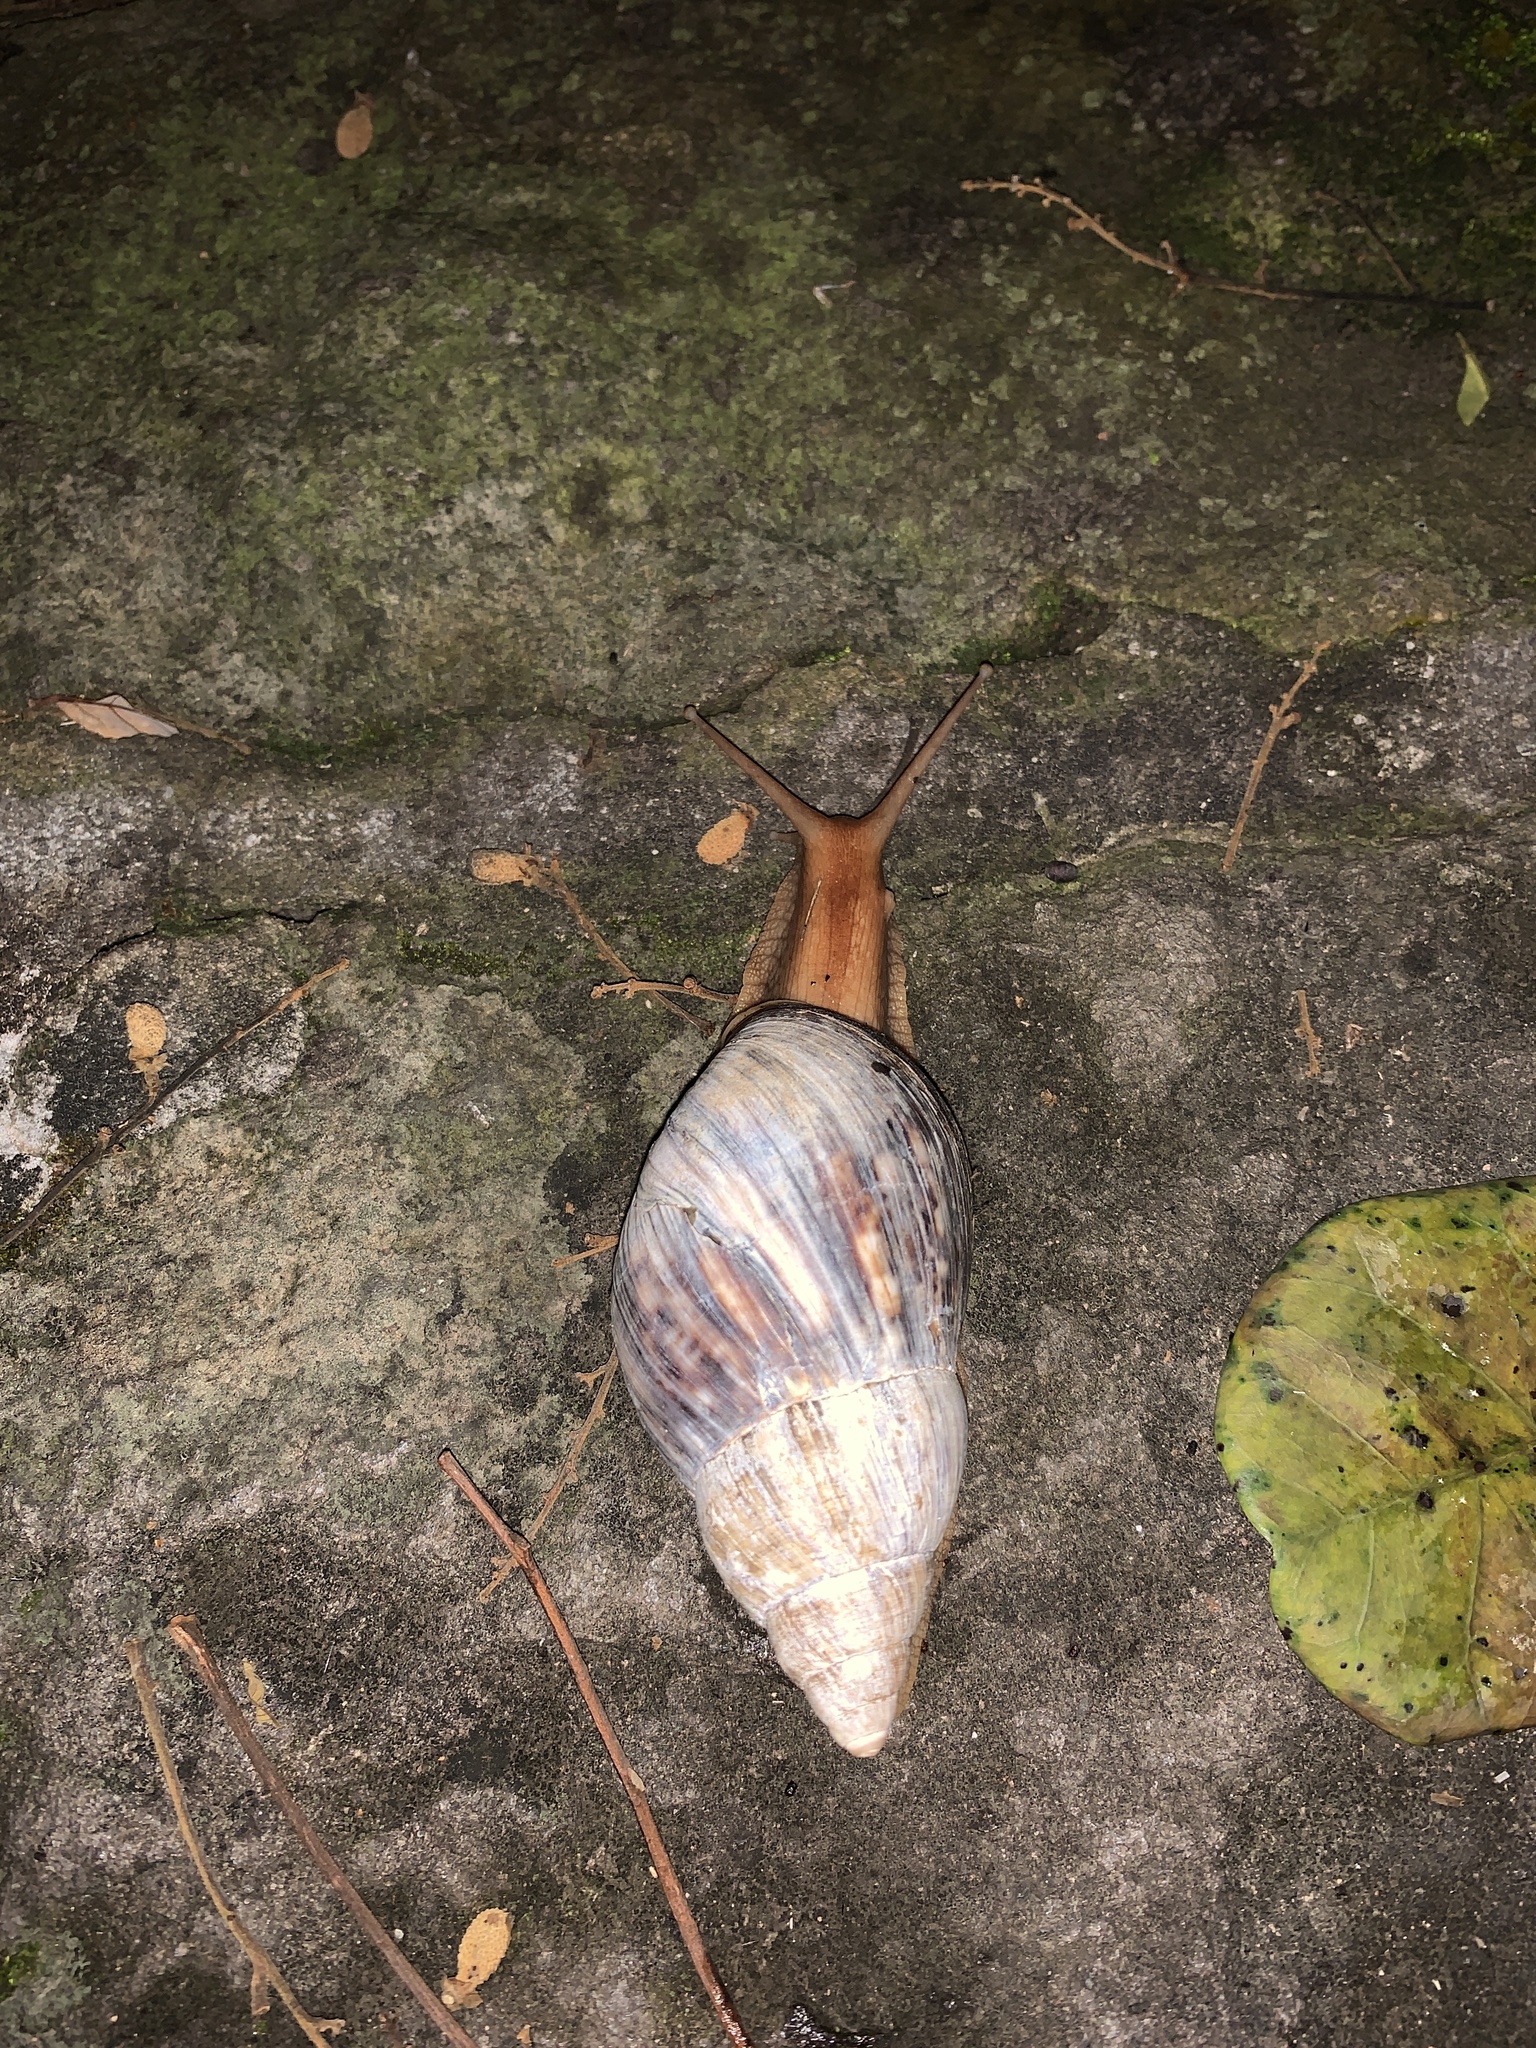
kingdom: Animalia
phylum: Mollusca
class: Gastropoda
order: Stylommatophora
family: Achatinidae
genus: Lissachatina
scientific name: Lissachatina immaculata
